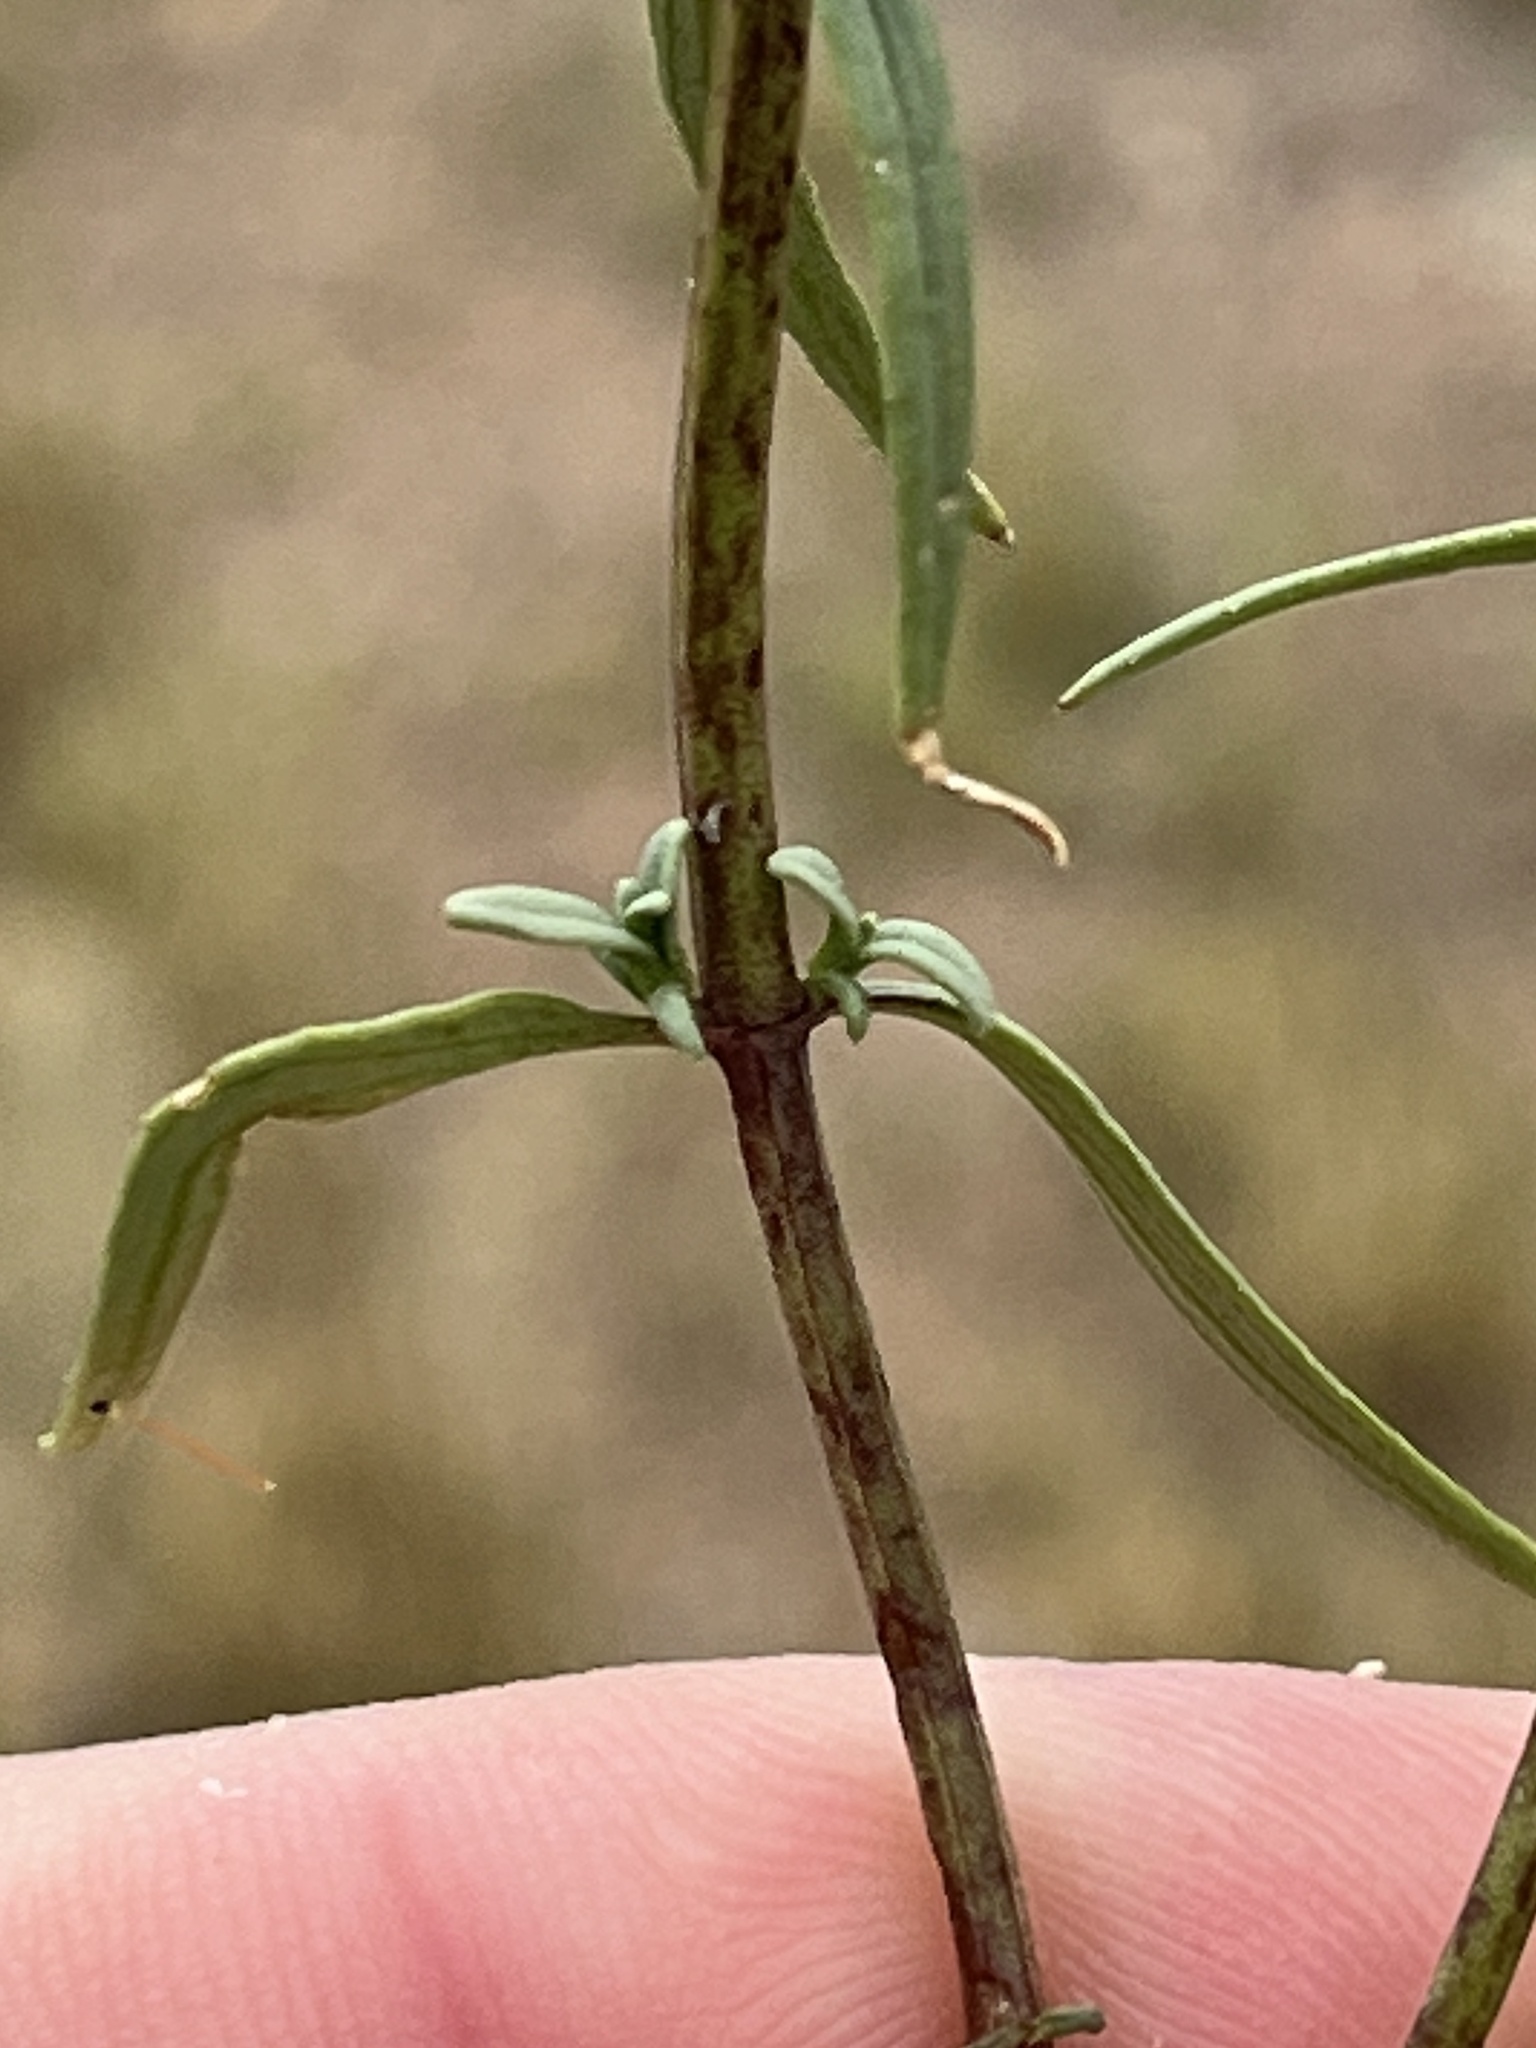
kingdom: Plantae
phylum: Tracheophyta
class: Magnoliopsida
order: Lamiales
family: Scrophulariaceae
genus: Nemesia
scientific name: Nemesia fruticans
